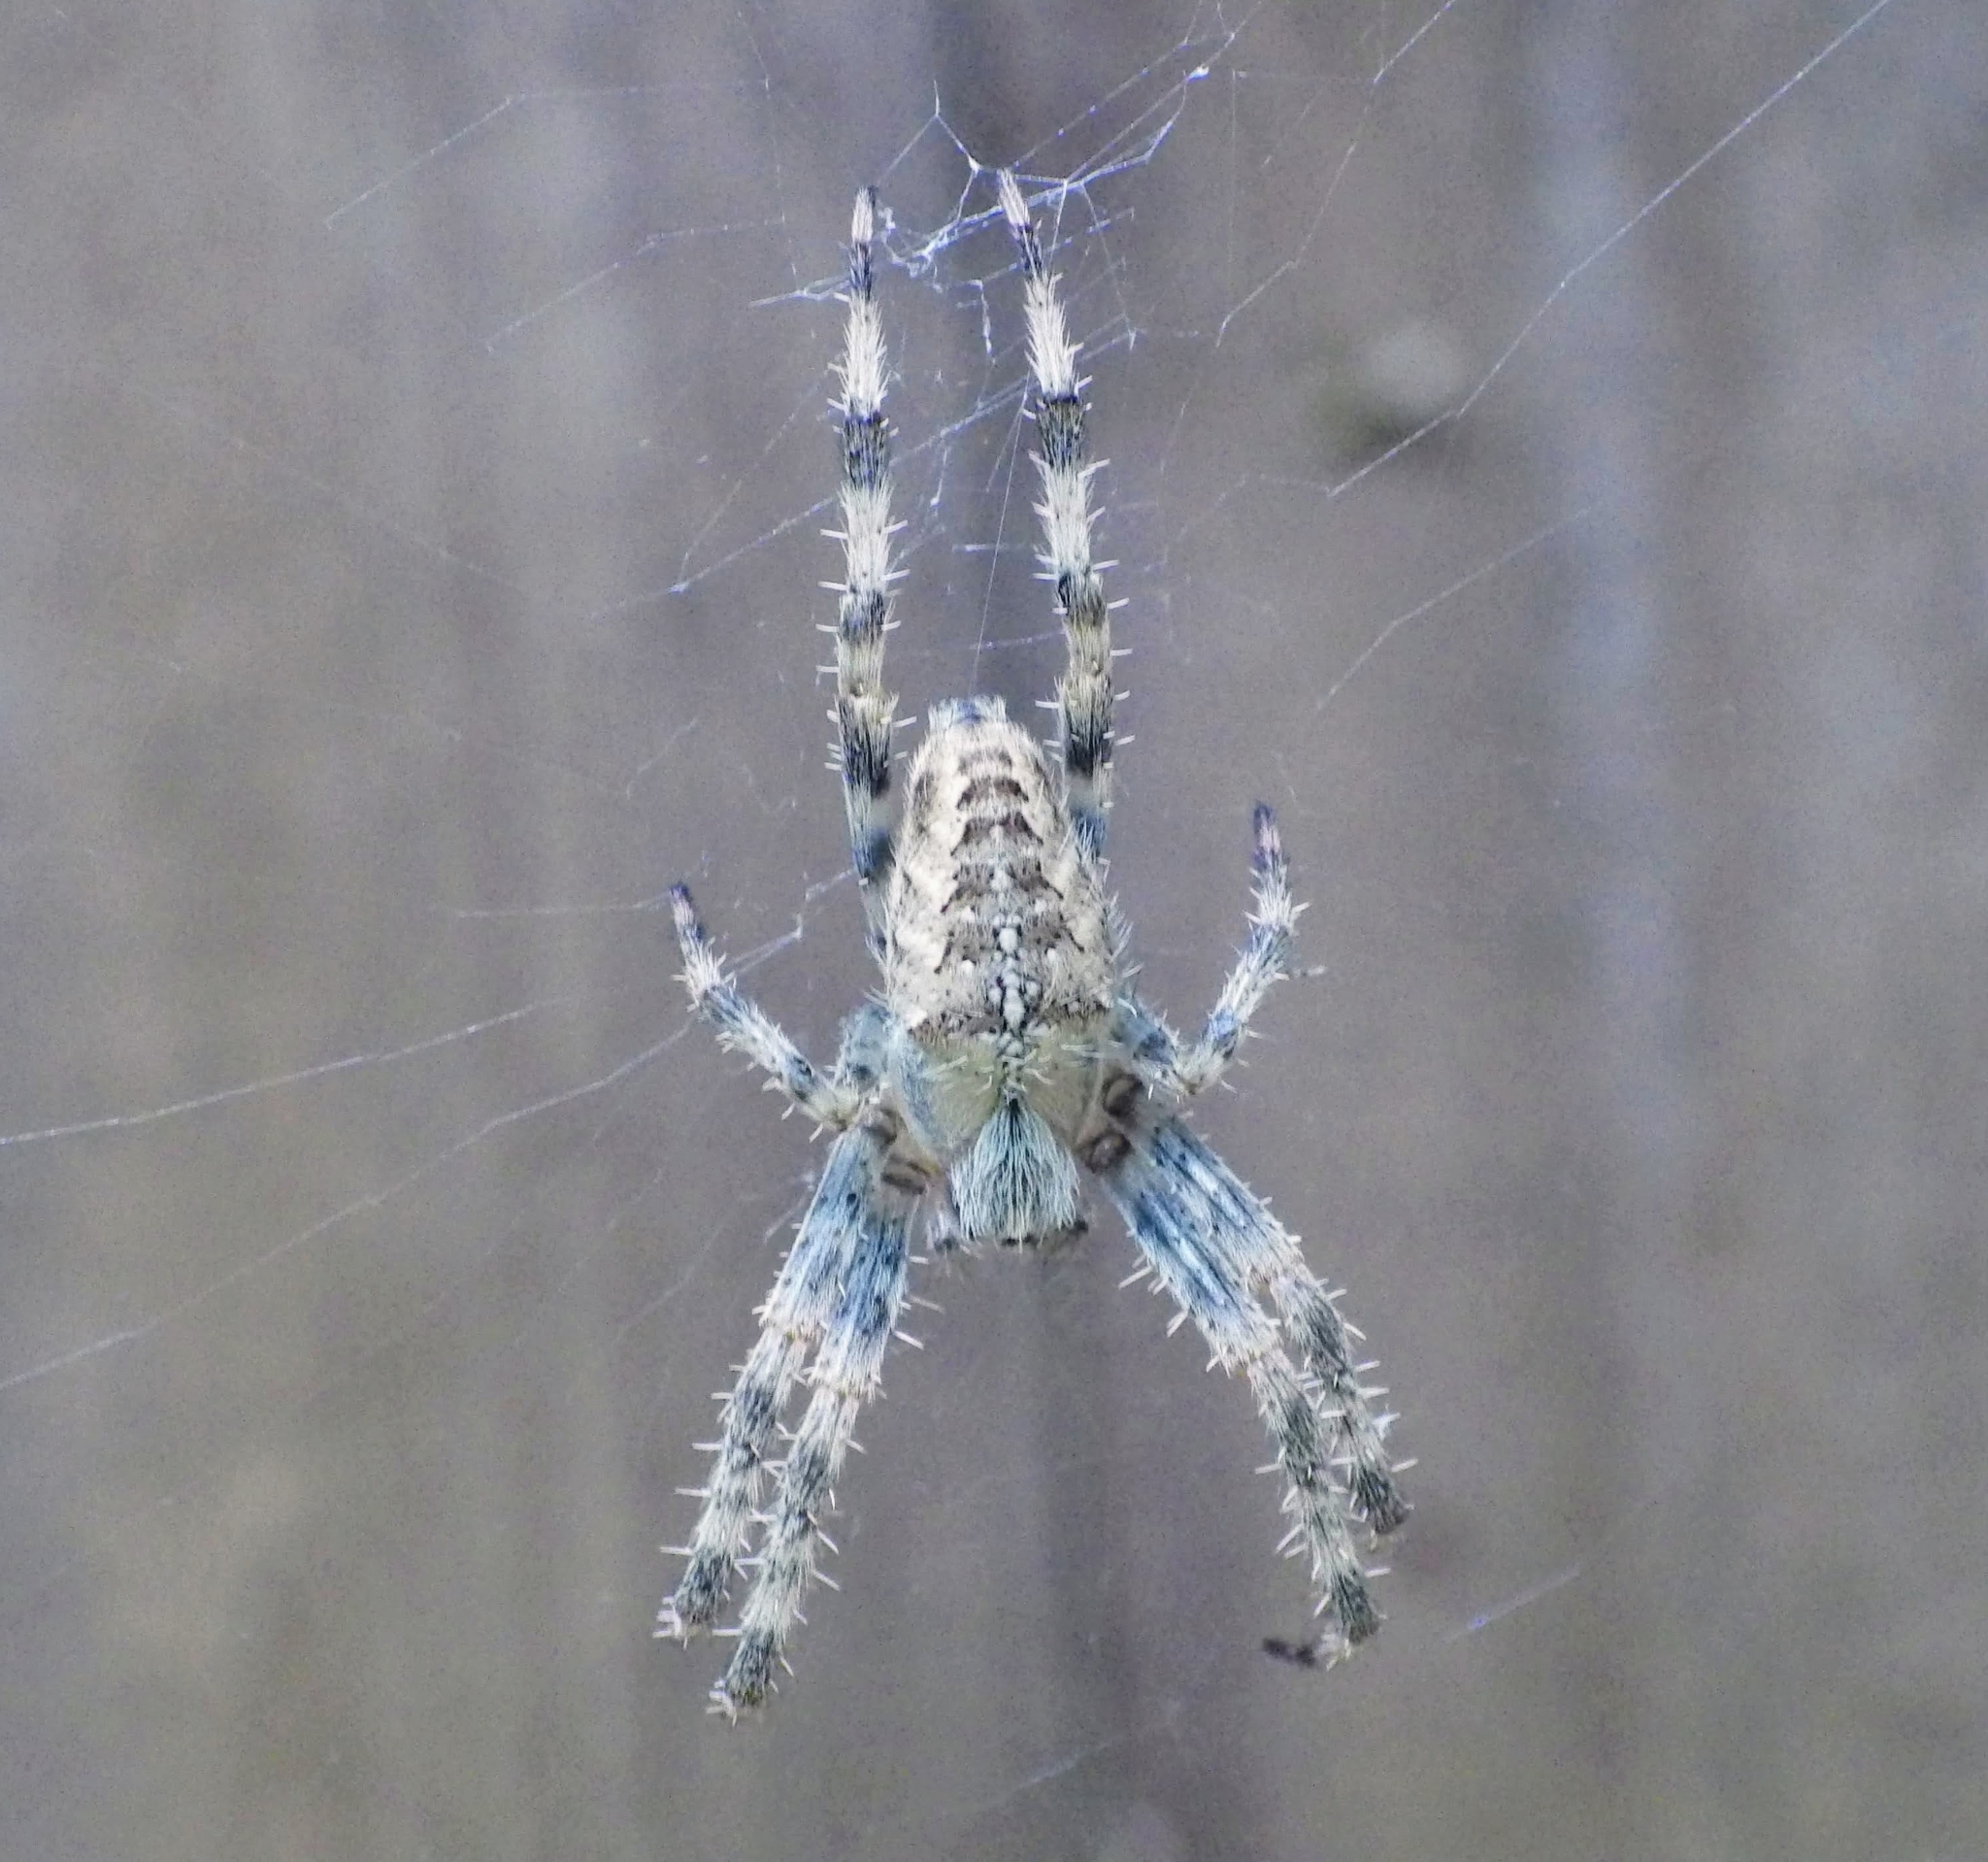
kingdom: Animalia
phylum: Arthropoda
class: Arachnida
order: Araneae
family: Araneidae
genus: Araneus
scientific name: Araneus diadematus
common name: Cross orbweaver
